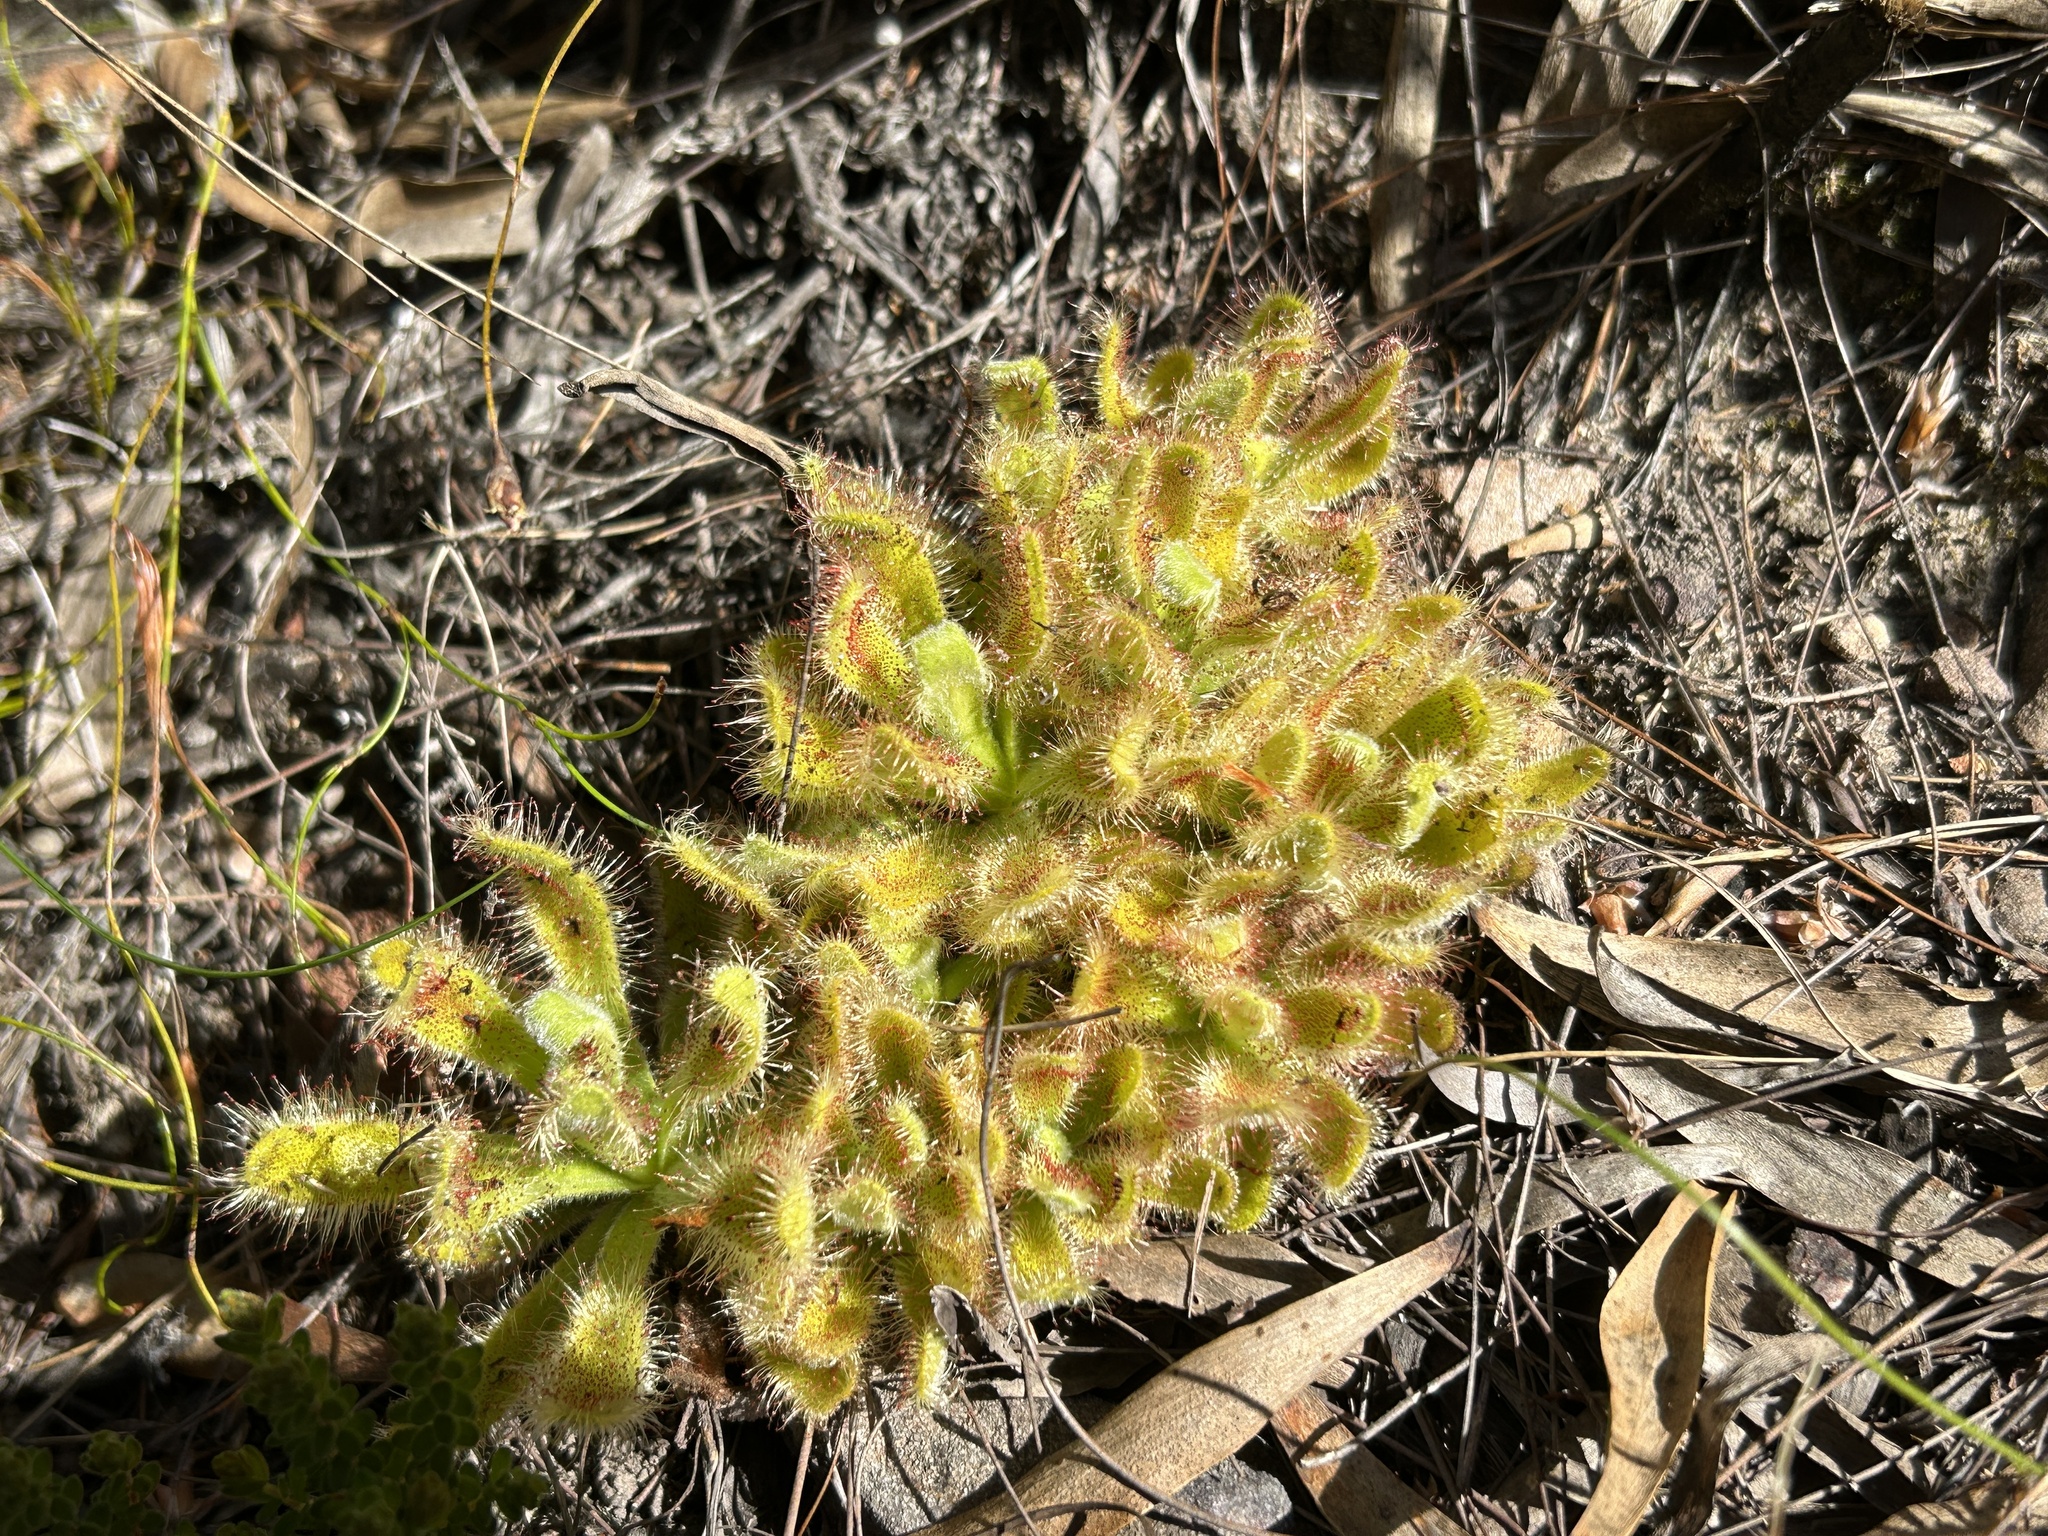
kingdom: Plantae
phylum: Tracheophyta
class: Magnoliopsida
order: Caryophyllales
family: Droseraceae
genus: Drosera
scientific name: Drosera hilaris
